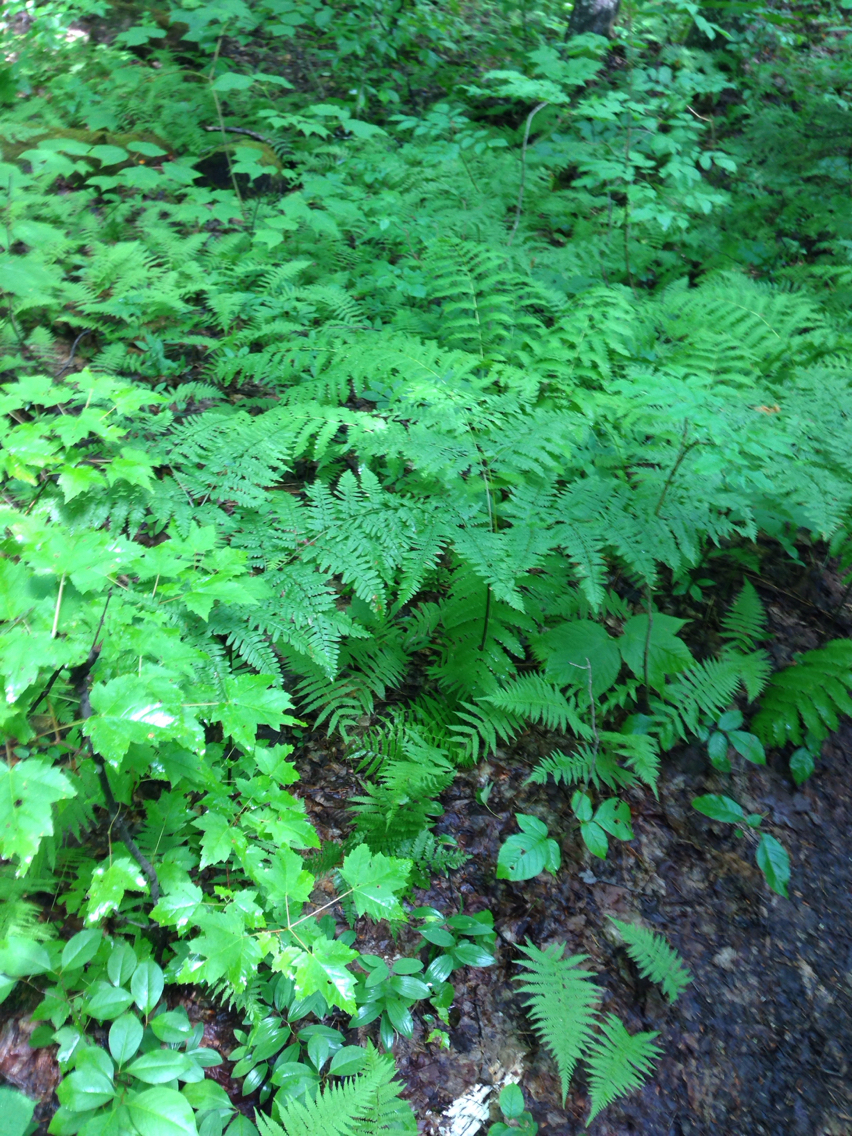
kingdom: Plantae
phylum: Tracheophyta
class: Polypodiopsida
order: Polypodiales
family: Dennstaedtiaceae
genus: Pteridium
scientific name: Pteridium aquilinum
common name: Bracken
